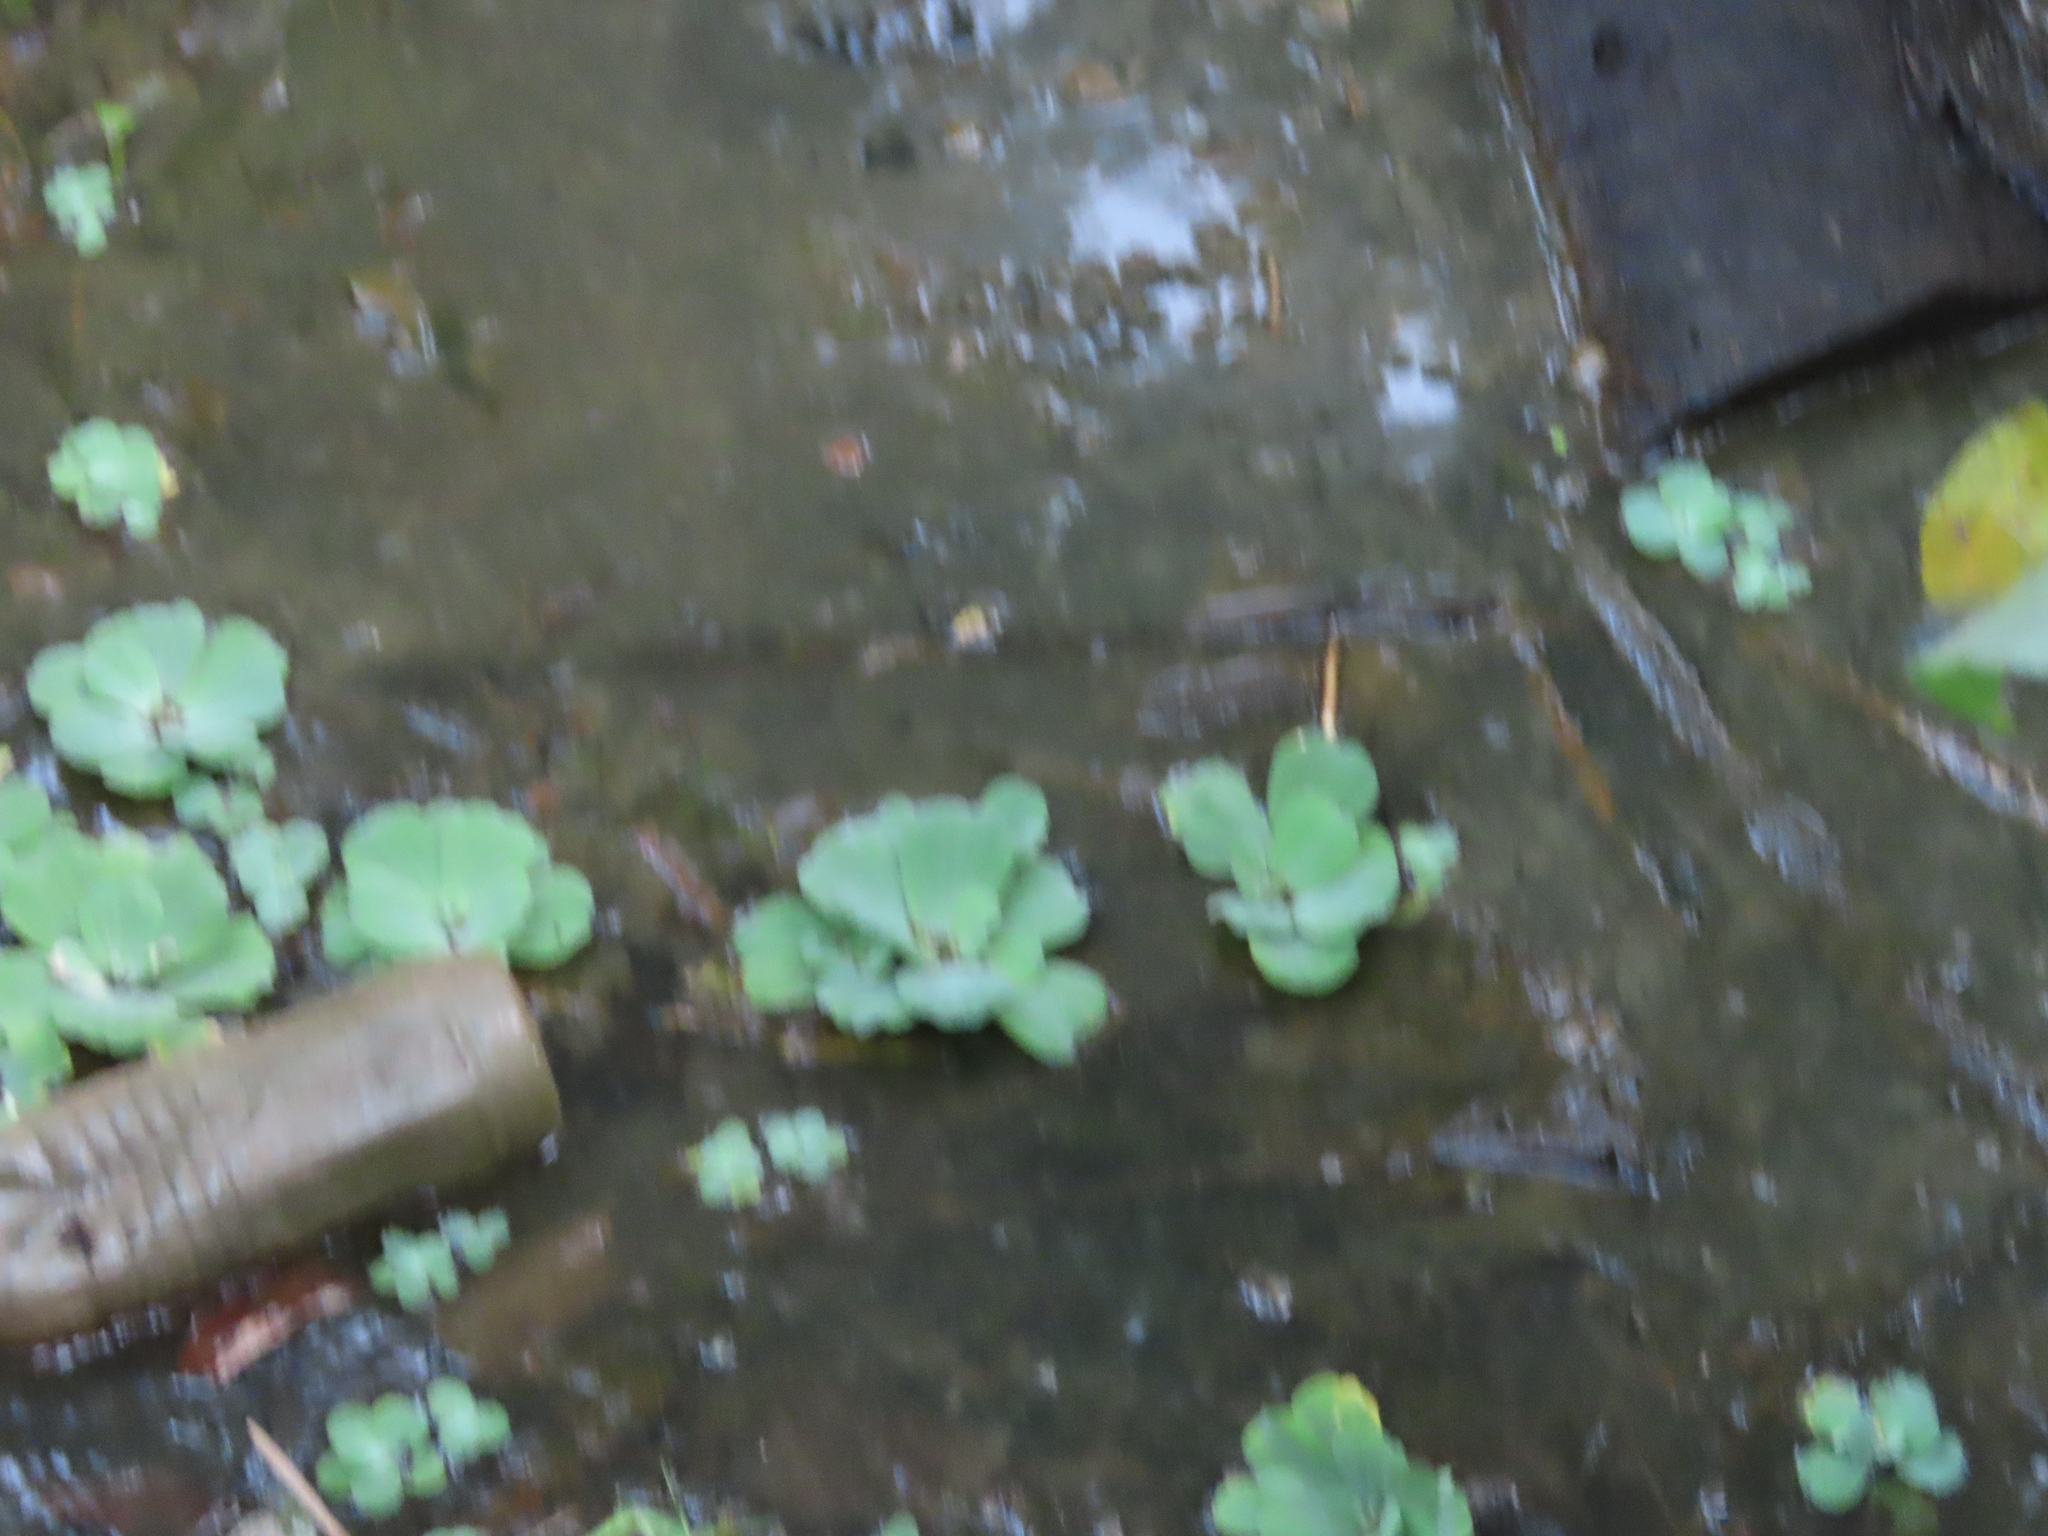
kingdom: Plantae
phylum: Tracheophyta
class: Liliopsida
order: Alismatales
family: Araceae
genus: Pistia
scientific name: Pistia stratiotes
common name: Water lettuce
